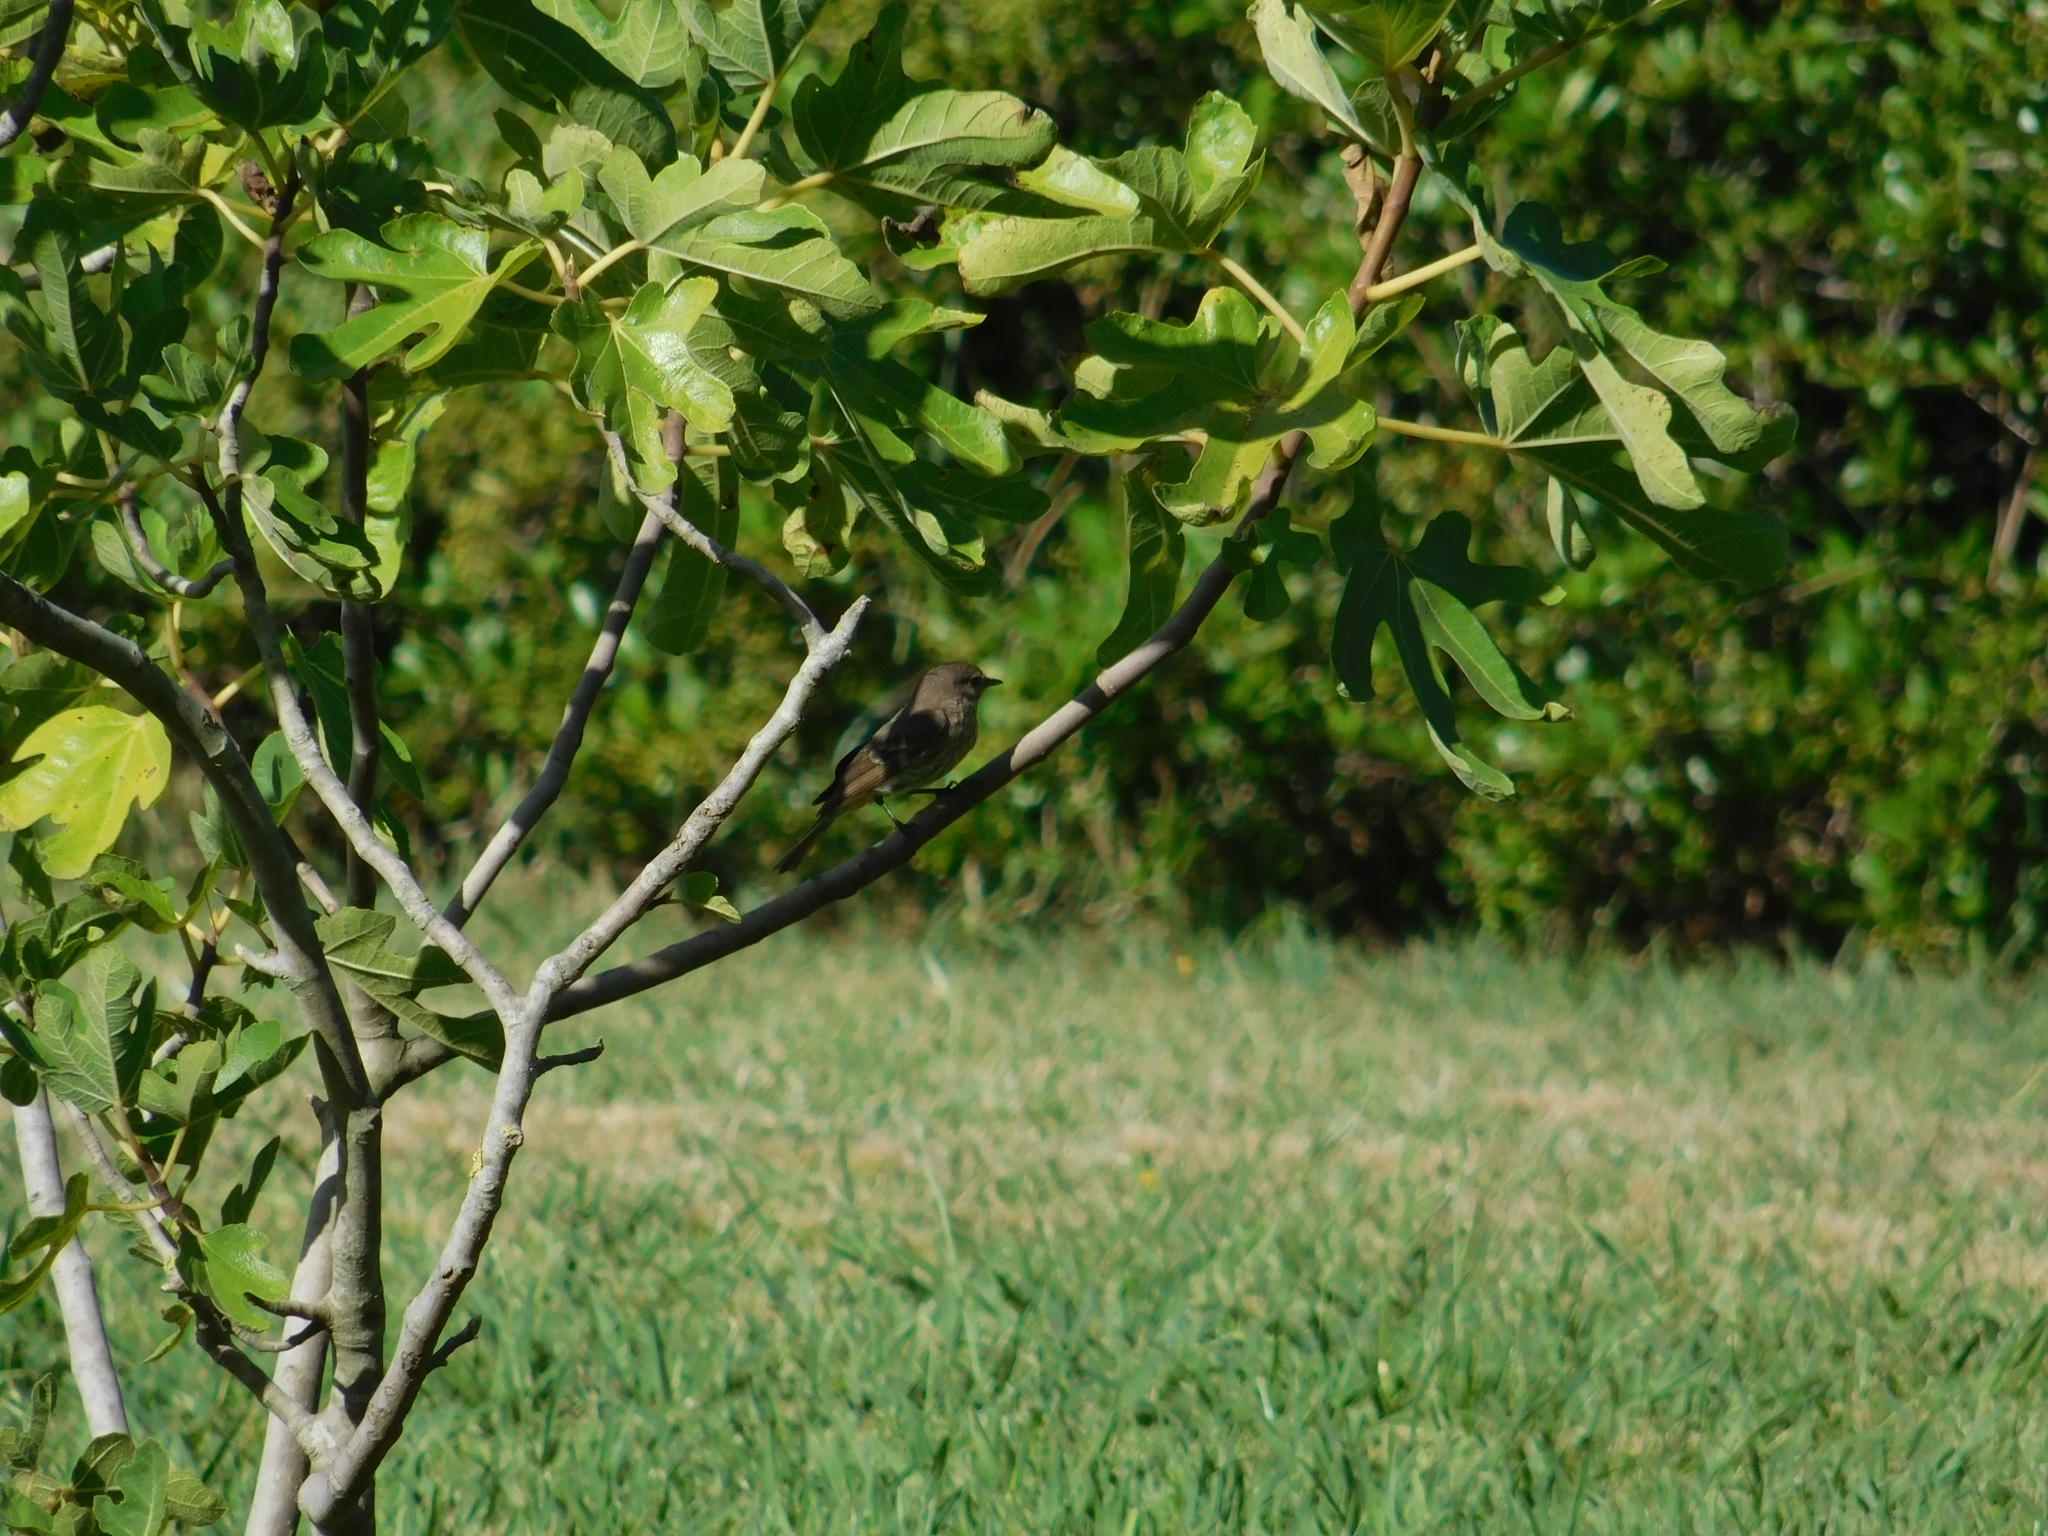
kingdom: Animalia
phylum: Chordata
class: Aves
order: Passeriformes
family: Tyrannidae
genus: Pyrocephalus
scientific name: Pyrocephalus rubinus
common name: Vermilion flycatcher
